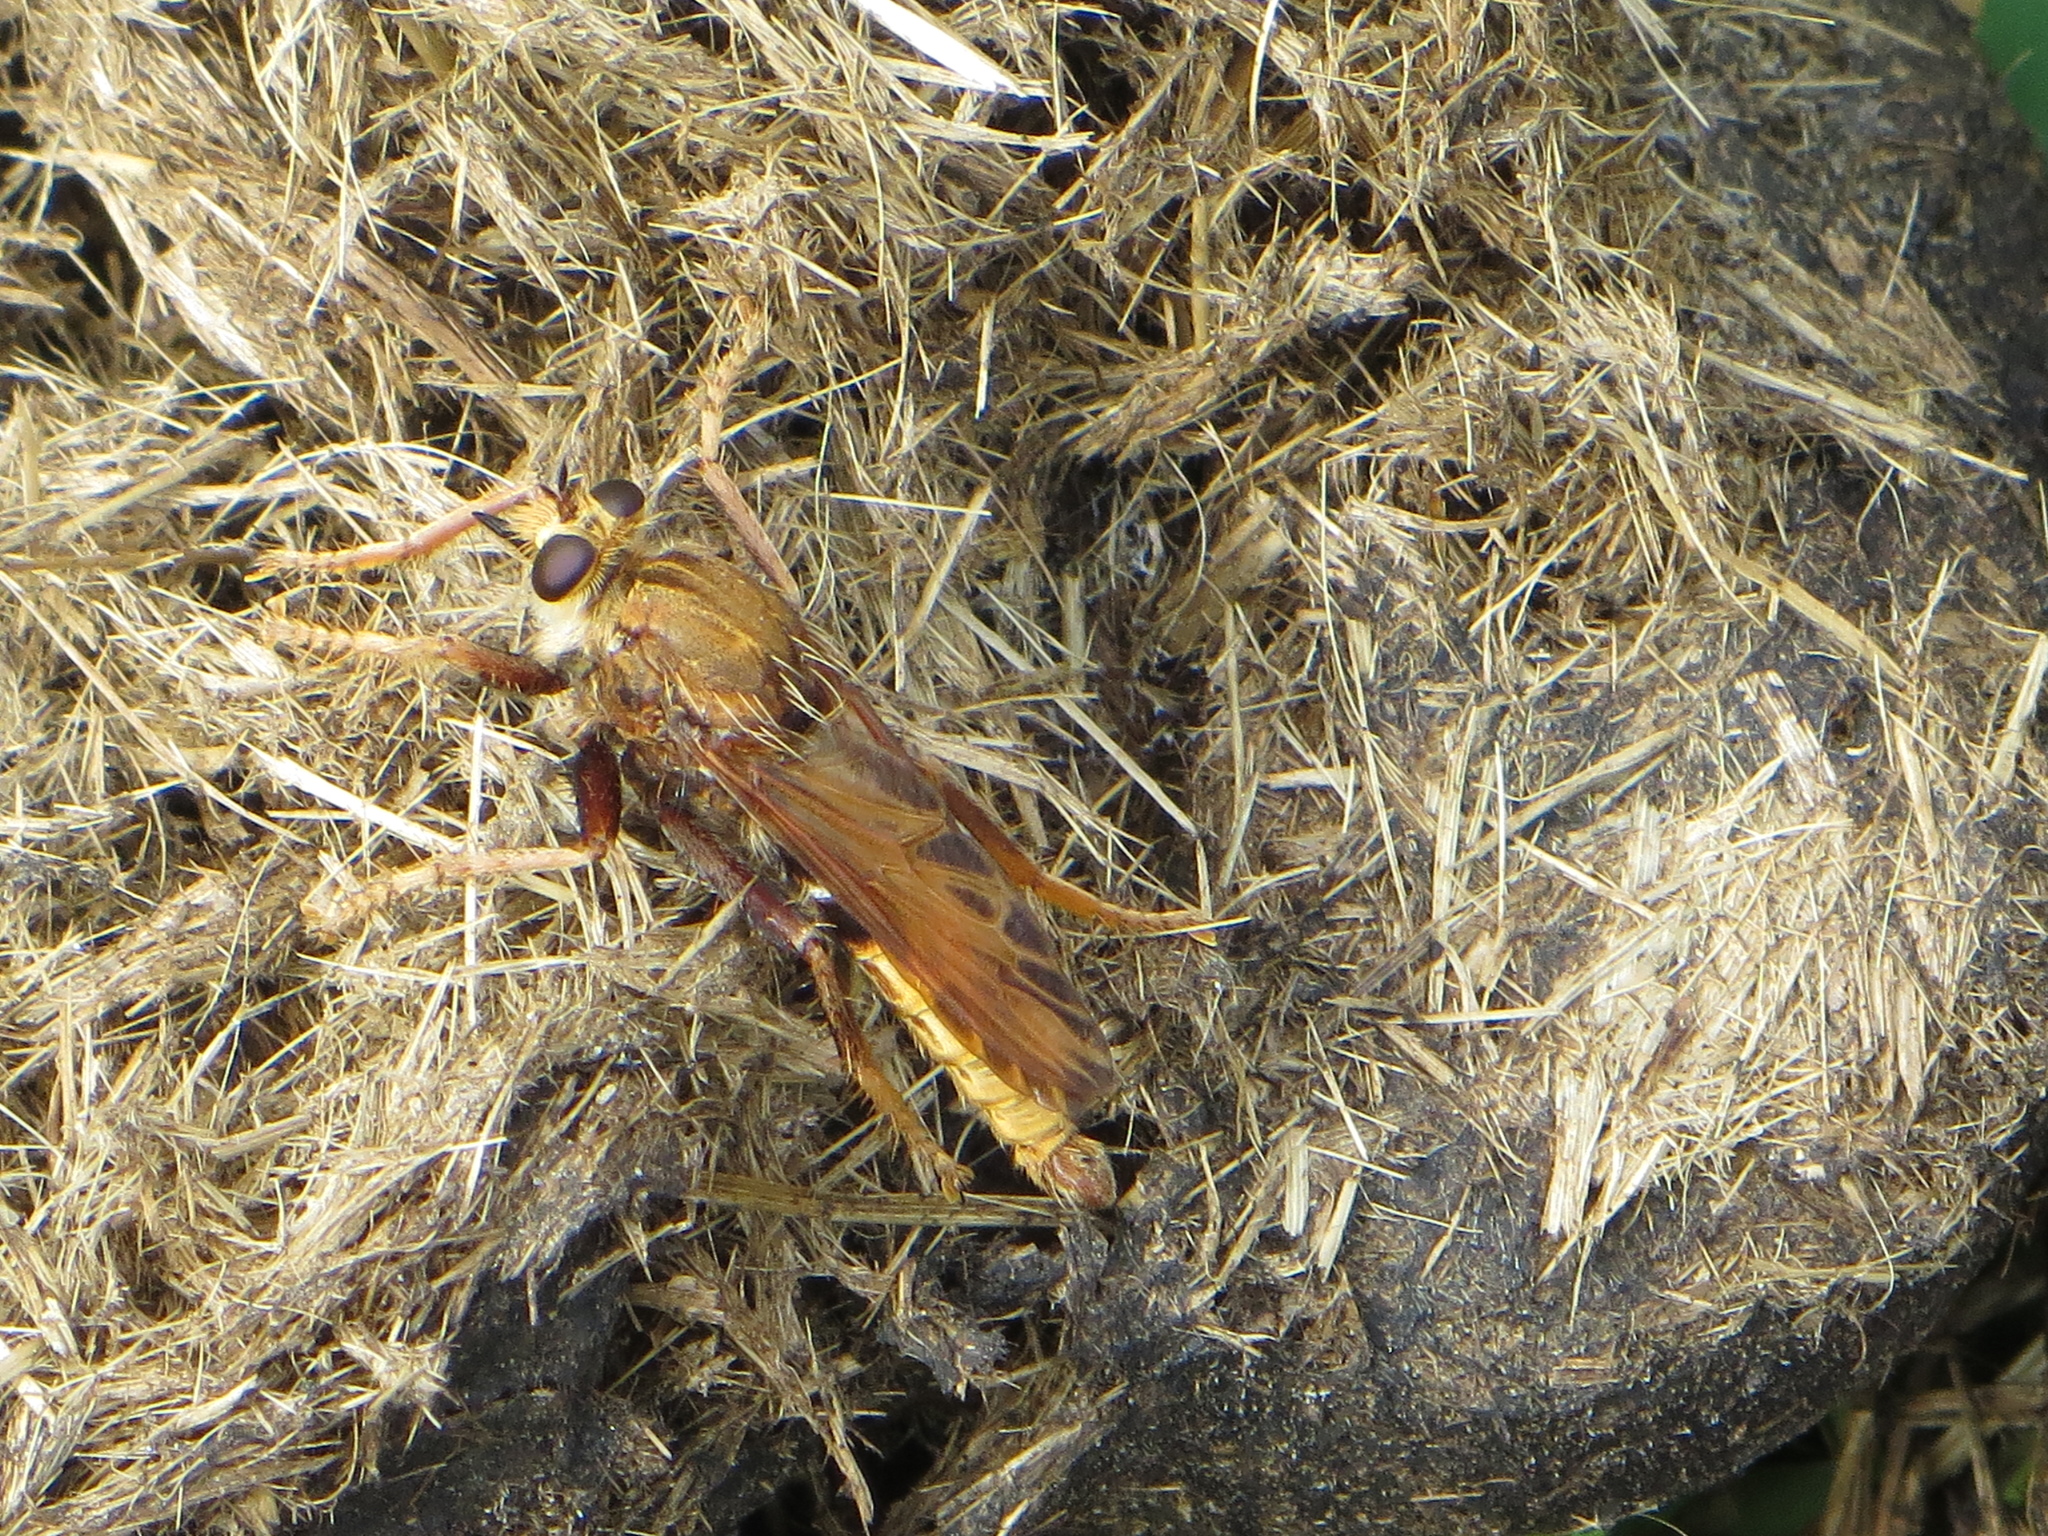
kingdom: Animalia
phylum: Arthropoda
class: Insecta
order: Diptera
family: Asilidae
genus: Asilus
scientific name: Asilus crabroniformis
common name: Hornet robberfly
